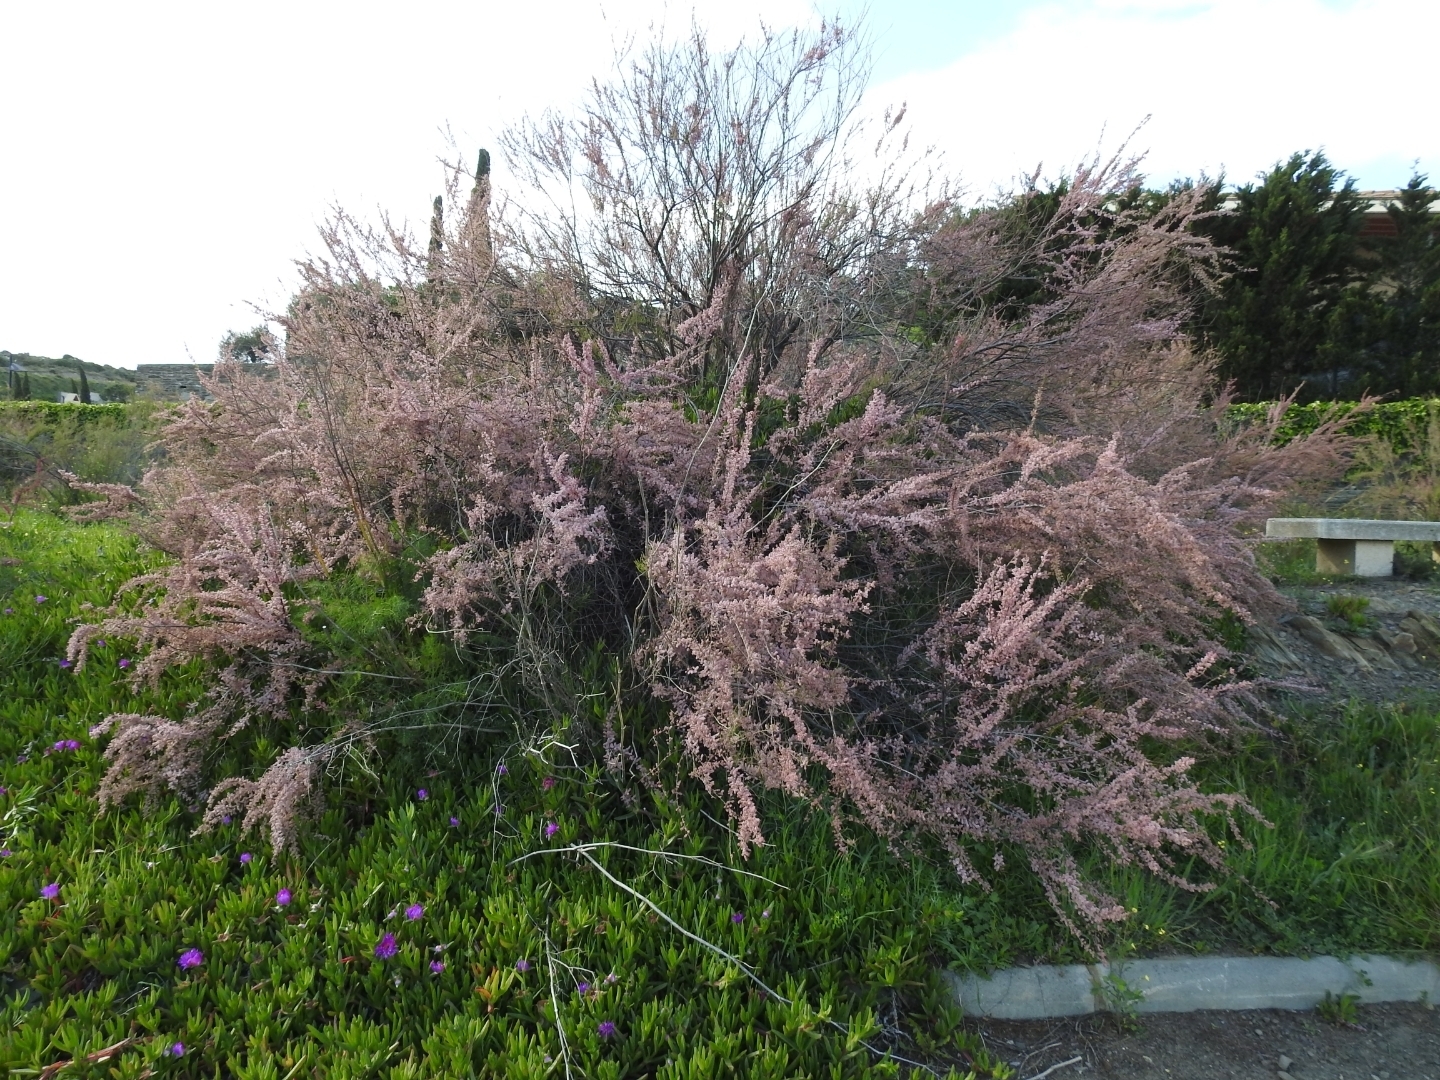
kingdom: Plantae
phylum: Tracheophyta
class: Magnoliopsida
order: Caryophyllales
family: Tamaricaceae
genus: Tamarix
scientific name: Tamarix parviflora
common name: Smallflower tamarisk
